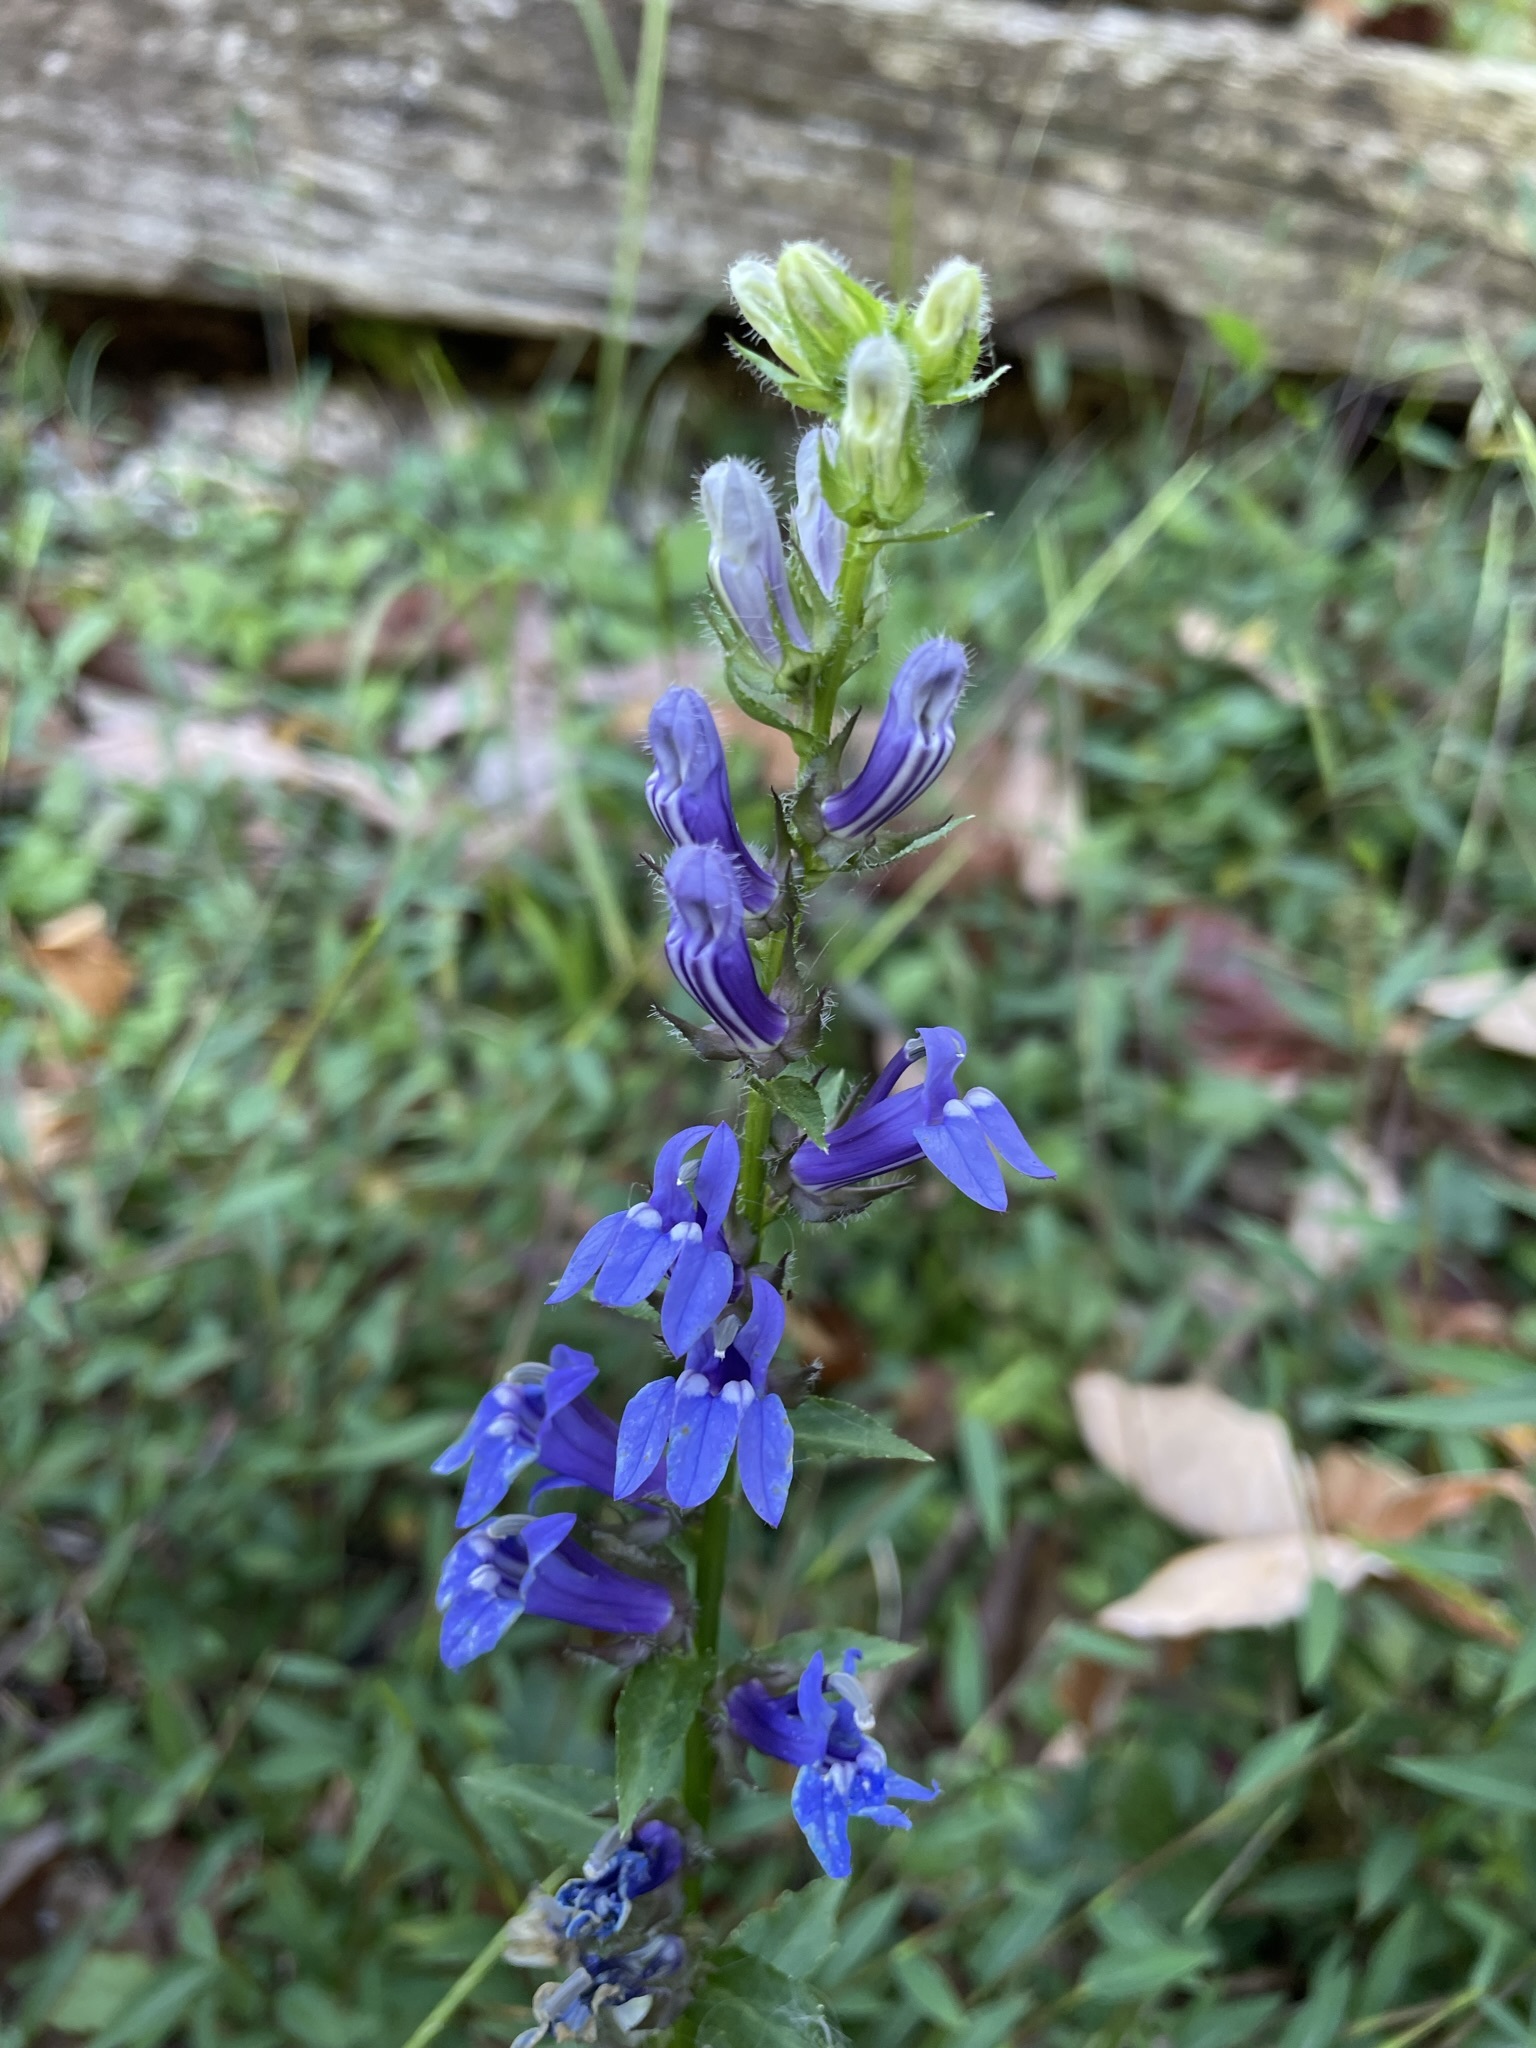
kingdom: Plantae
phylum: Tracheophyta
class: Magnoliopsida
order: Asterales
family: Campanulaceae
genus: Lobelia
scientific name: Lobelia siphilitica
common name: Great lobelia
